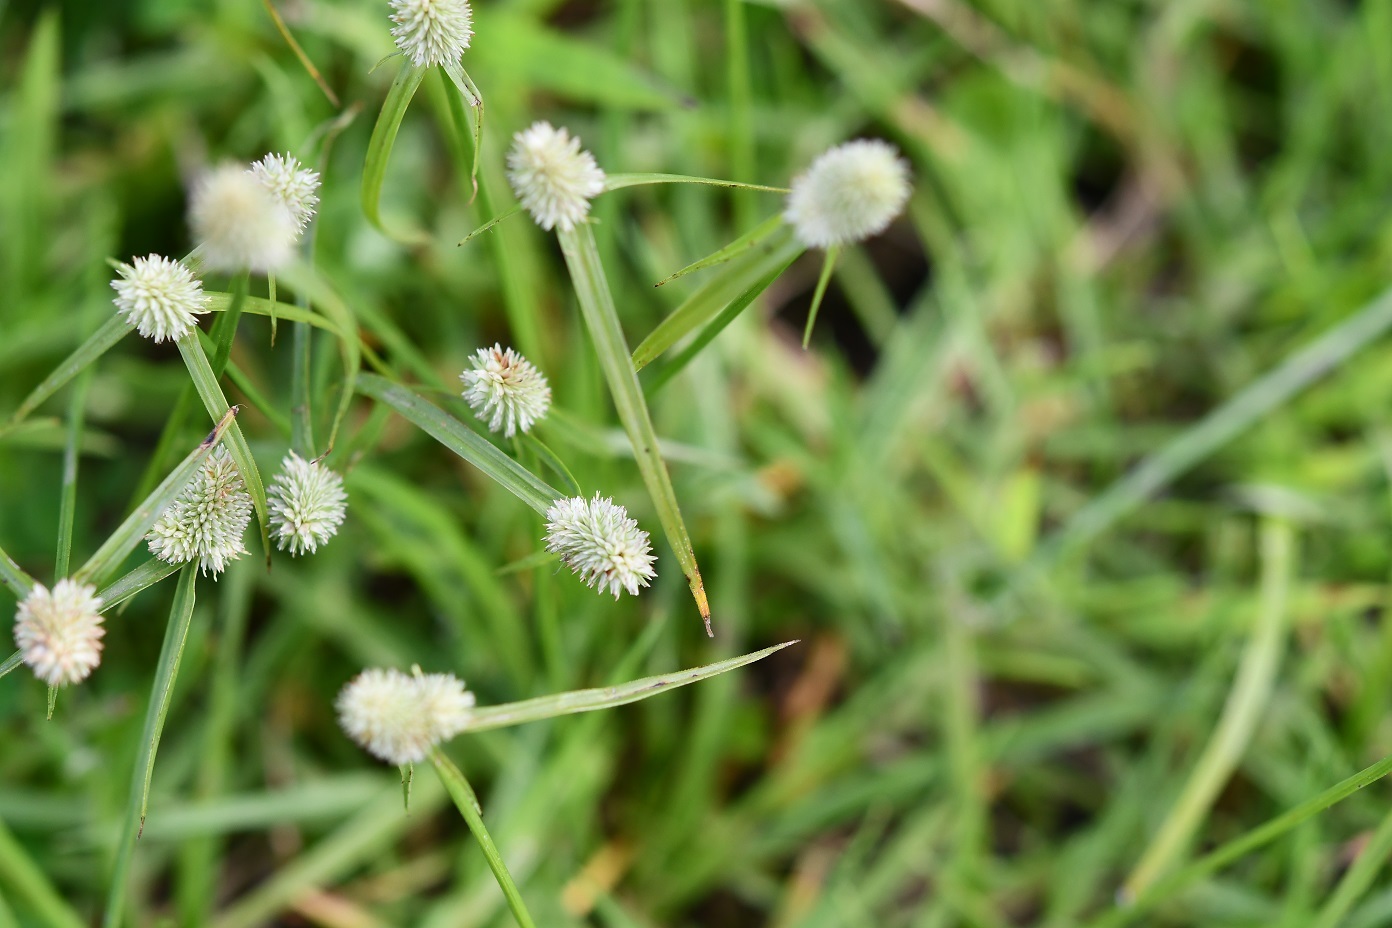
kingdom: Plantae
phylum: Tracheophyta
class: Liliopsida
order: Poales
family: Cyperaceae
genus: Cyperus
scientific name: Cyperus sesquiflorus
